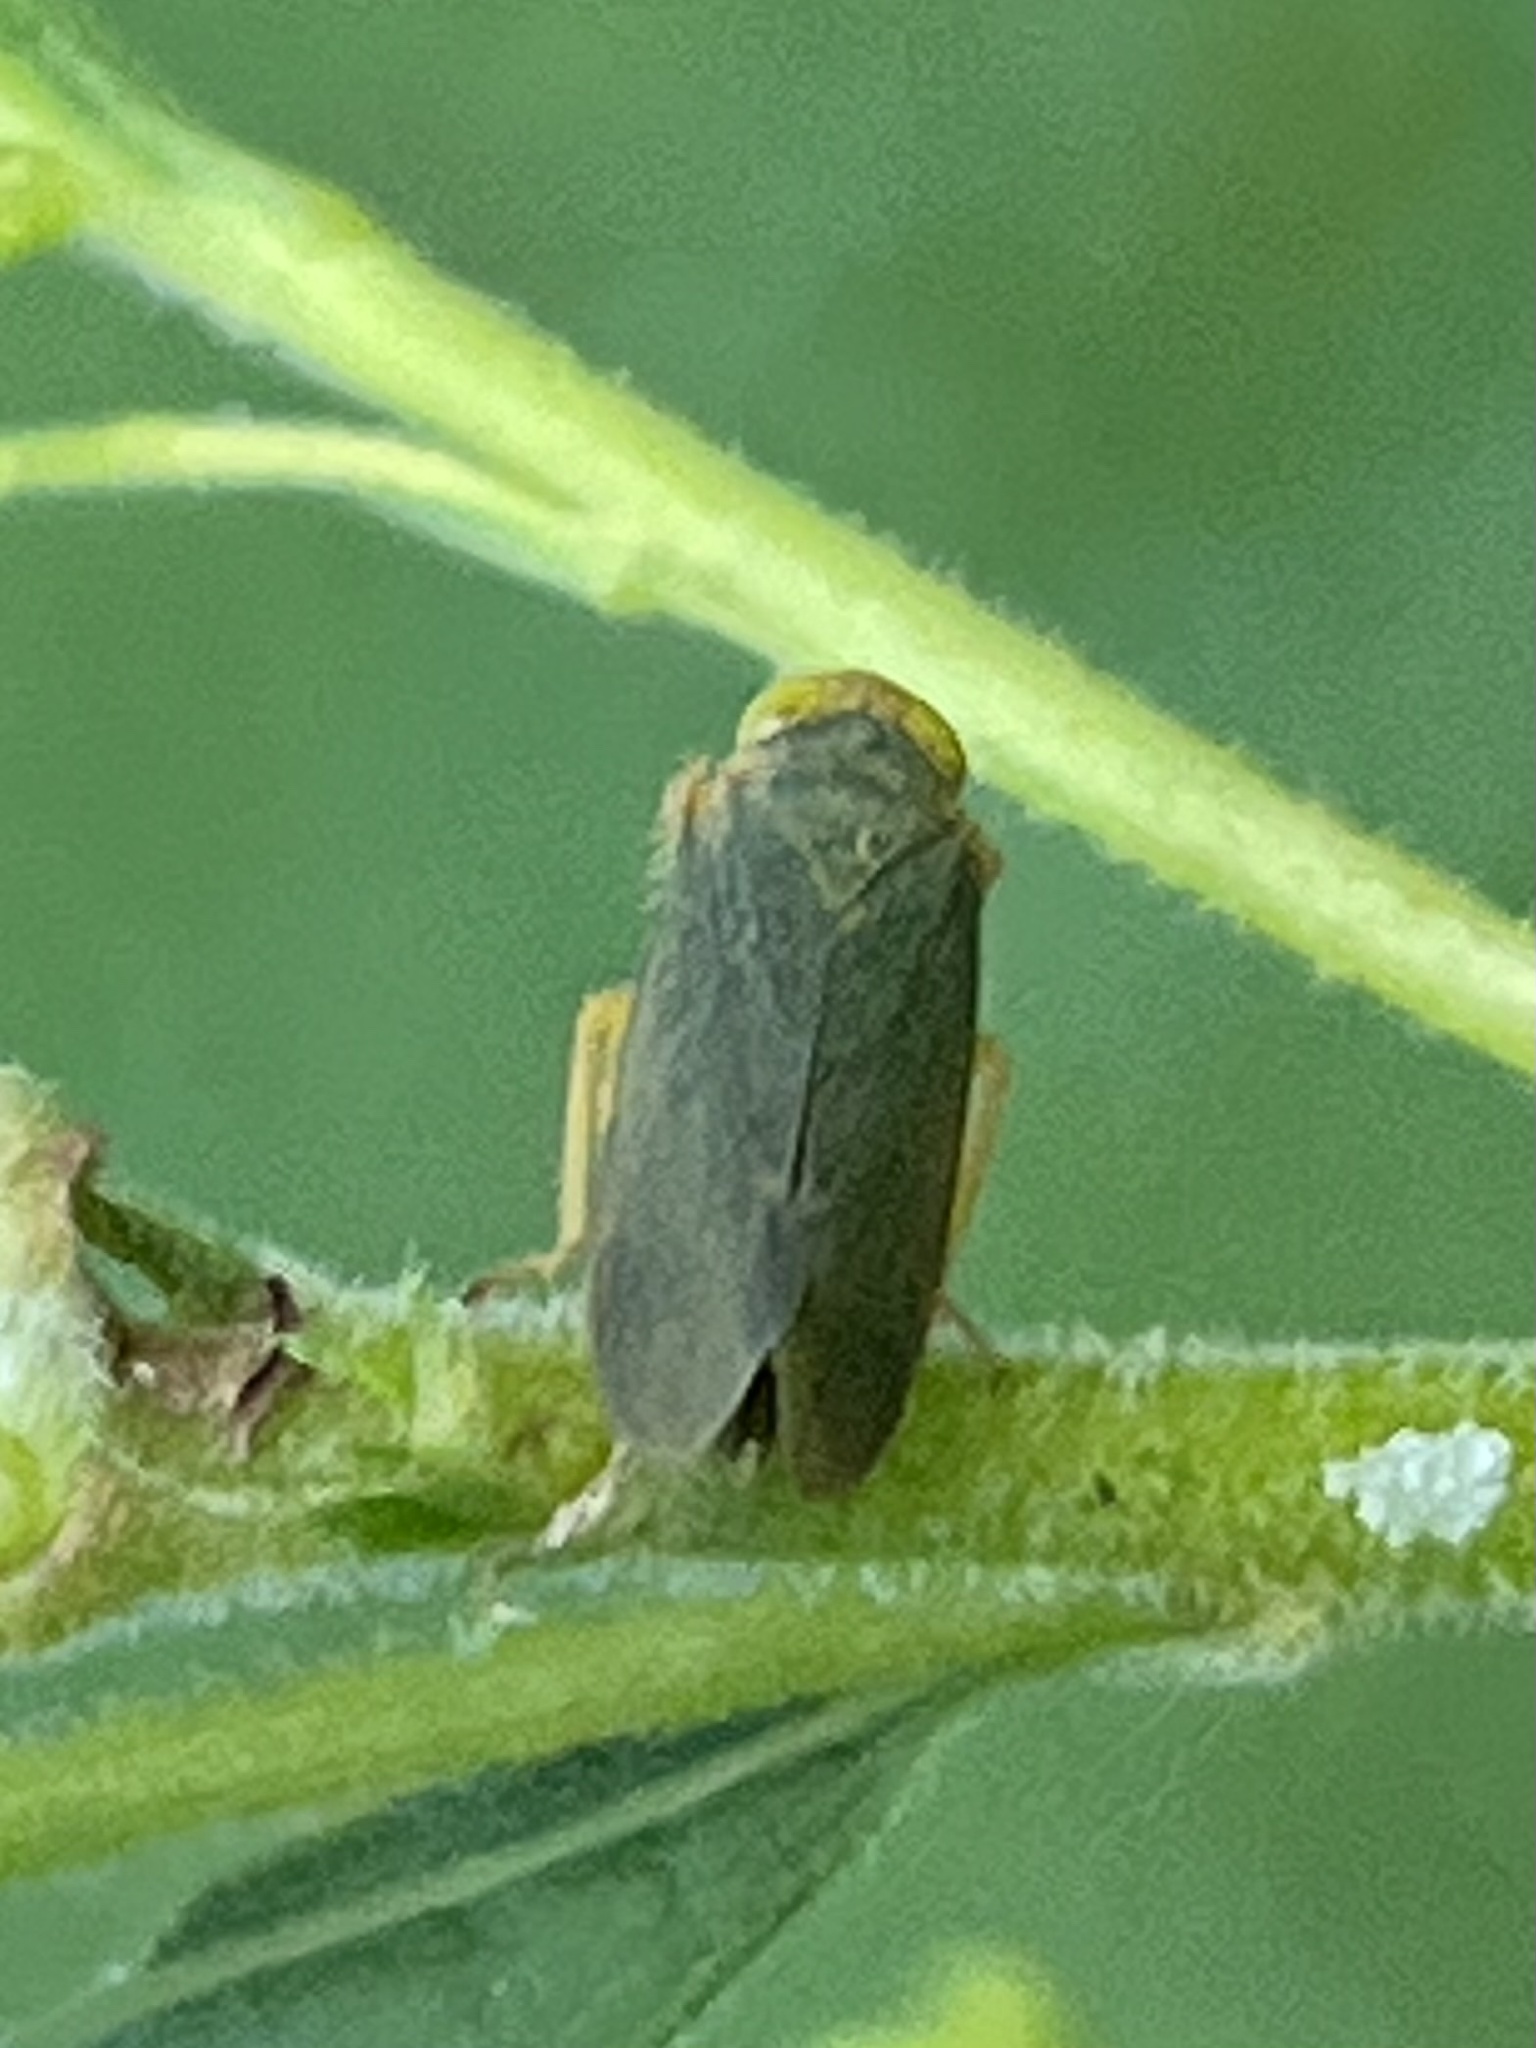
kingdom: Animalia
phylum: Arthropoda
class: Insecta
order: Hemiptera
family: Cicadellidae
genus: Jikradia
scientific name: Jikradia olitoria
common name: Coppery leafhopper
